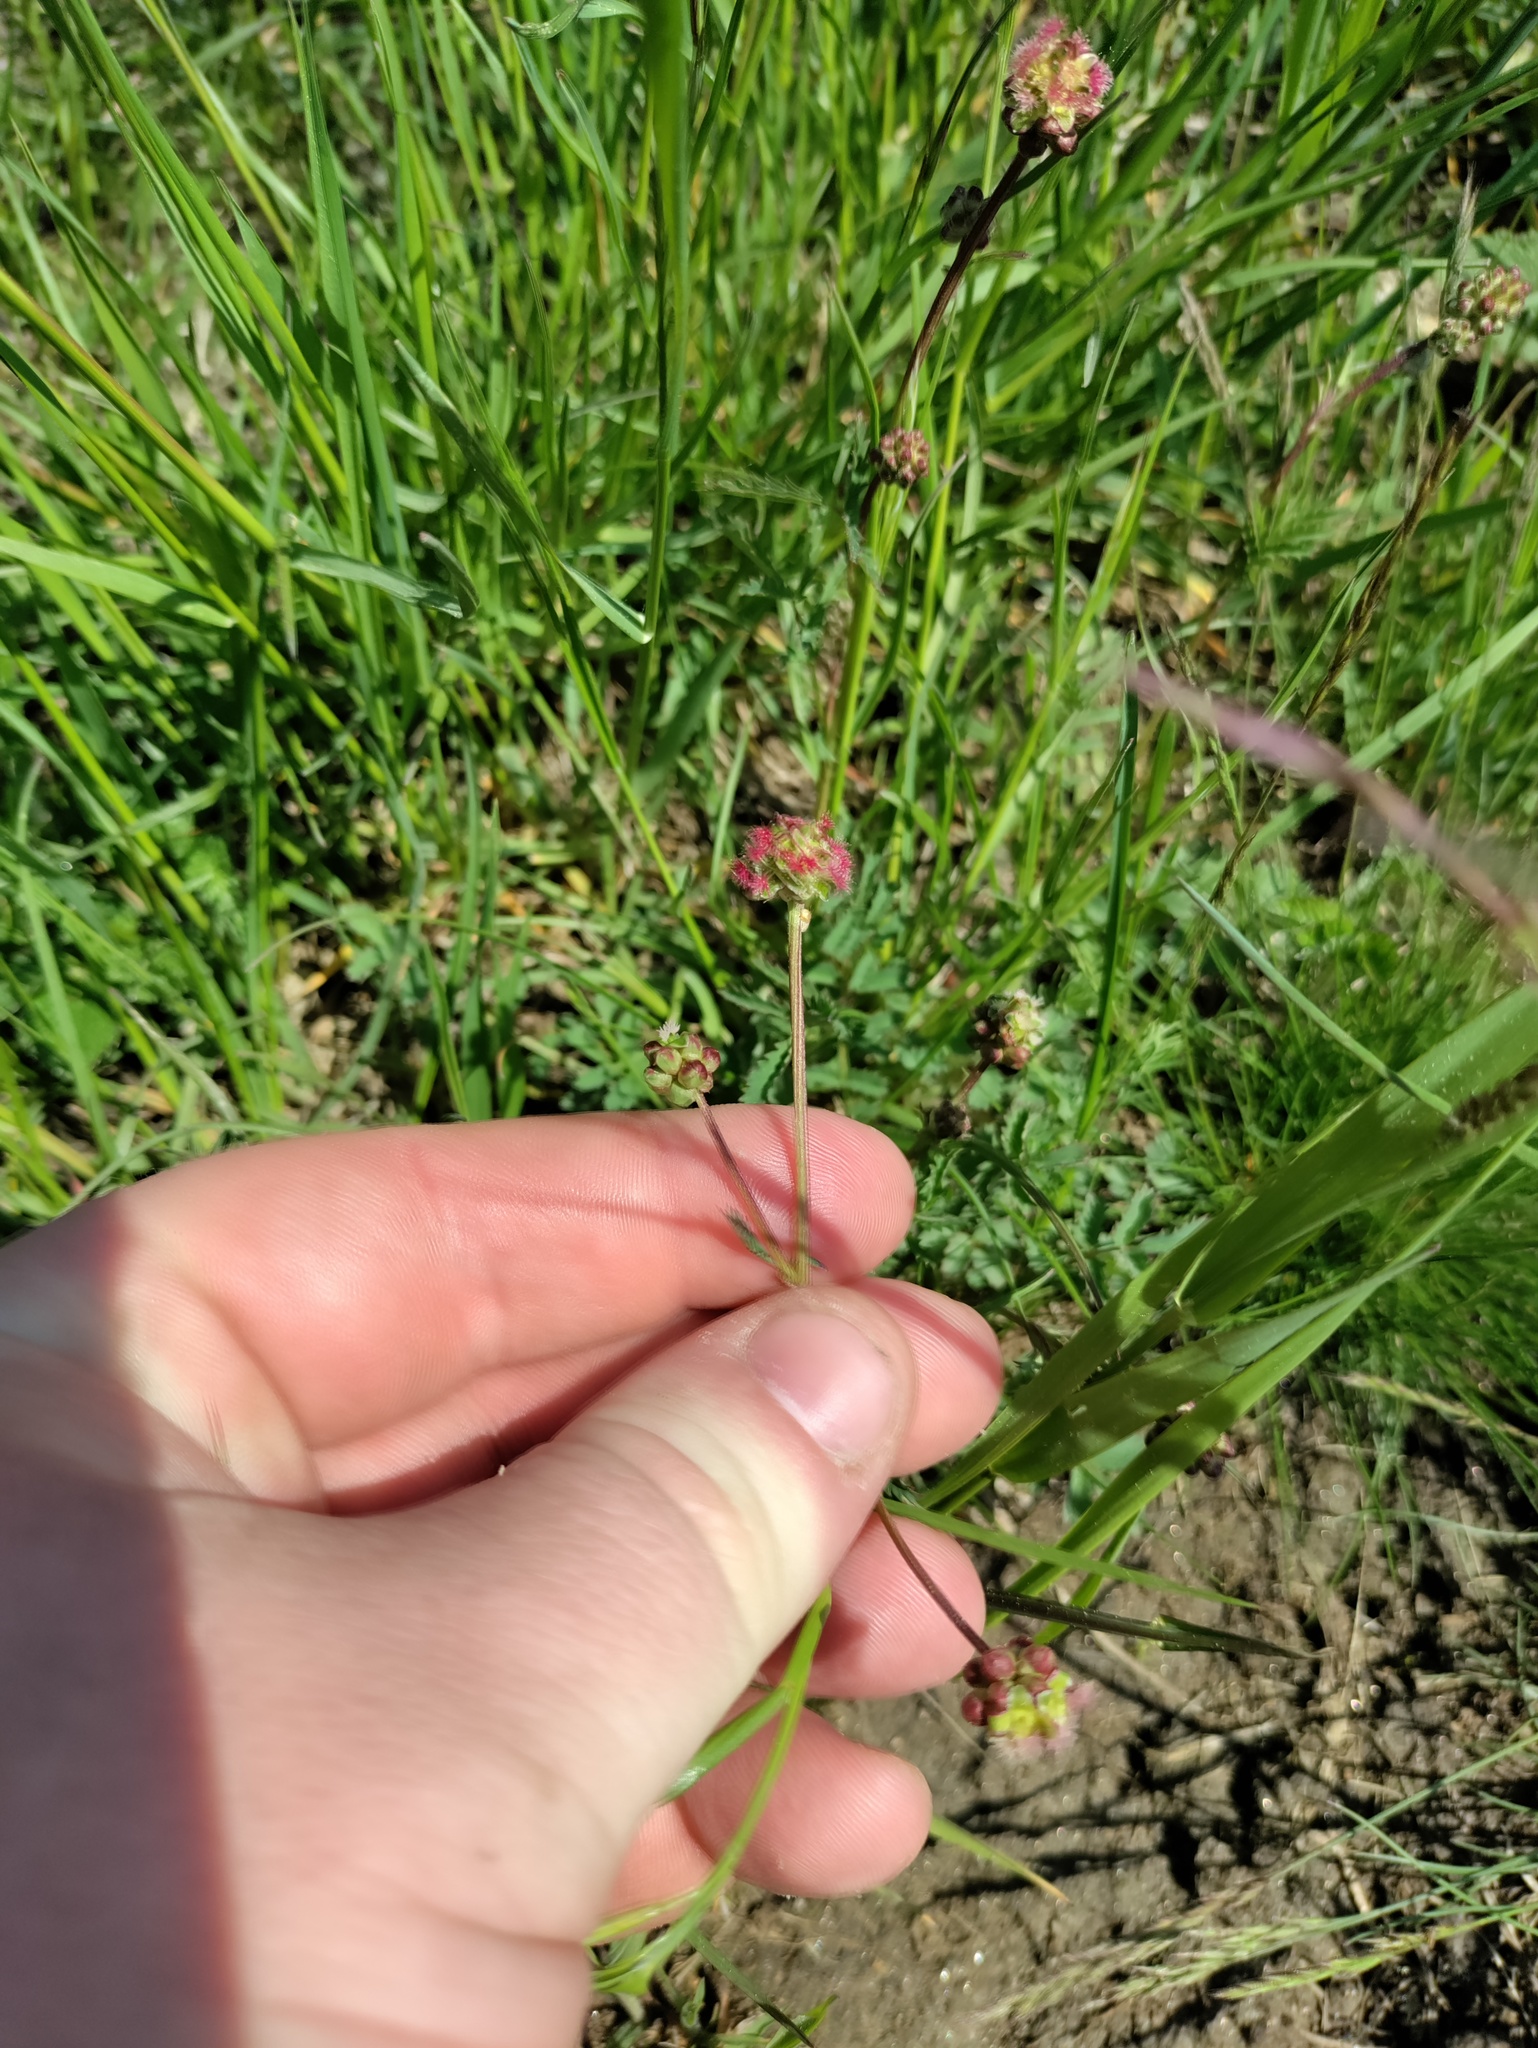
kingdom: Plantae
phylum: Tracheophyta
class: Magnoliopsida
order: Rosales
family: Rosaceae
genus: Poterium
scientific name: Poterium sanguisorba
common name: Salad burnet
